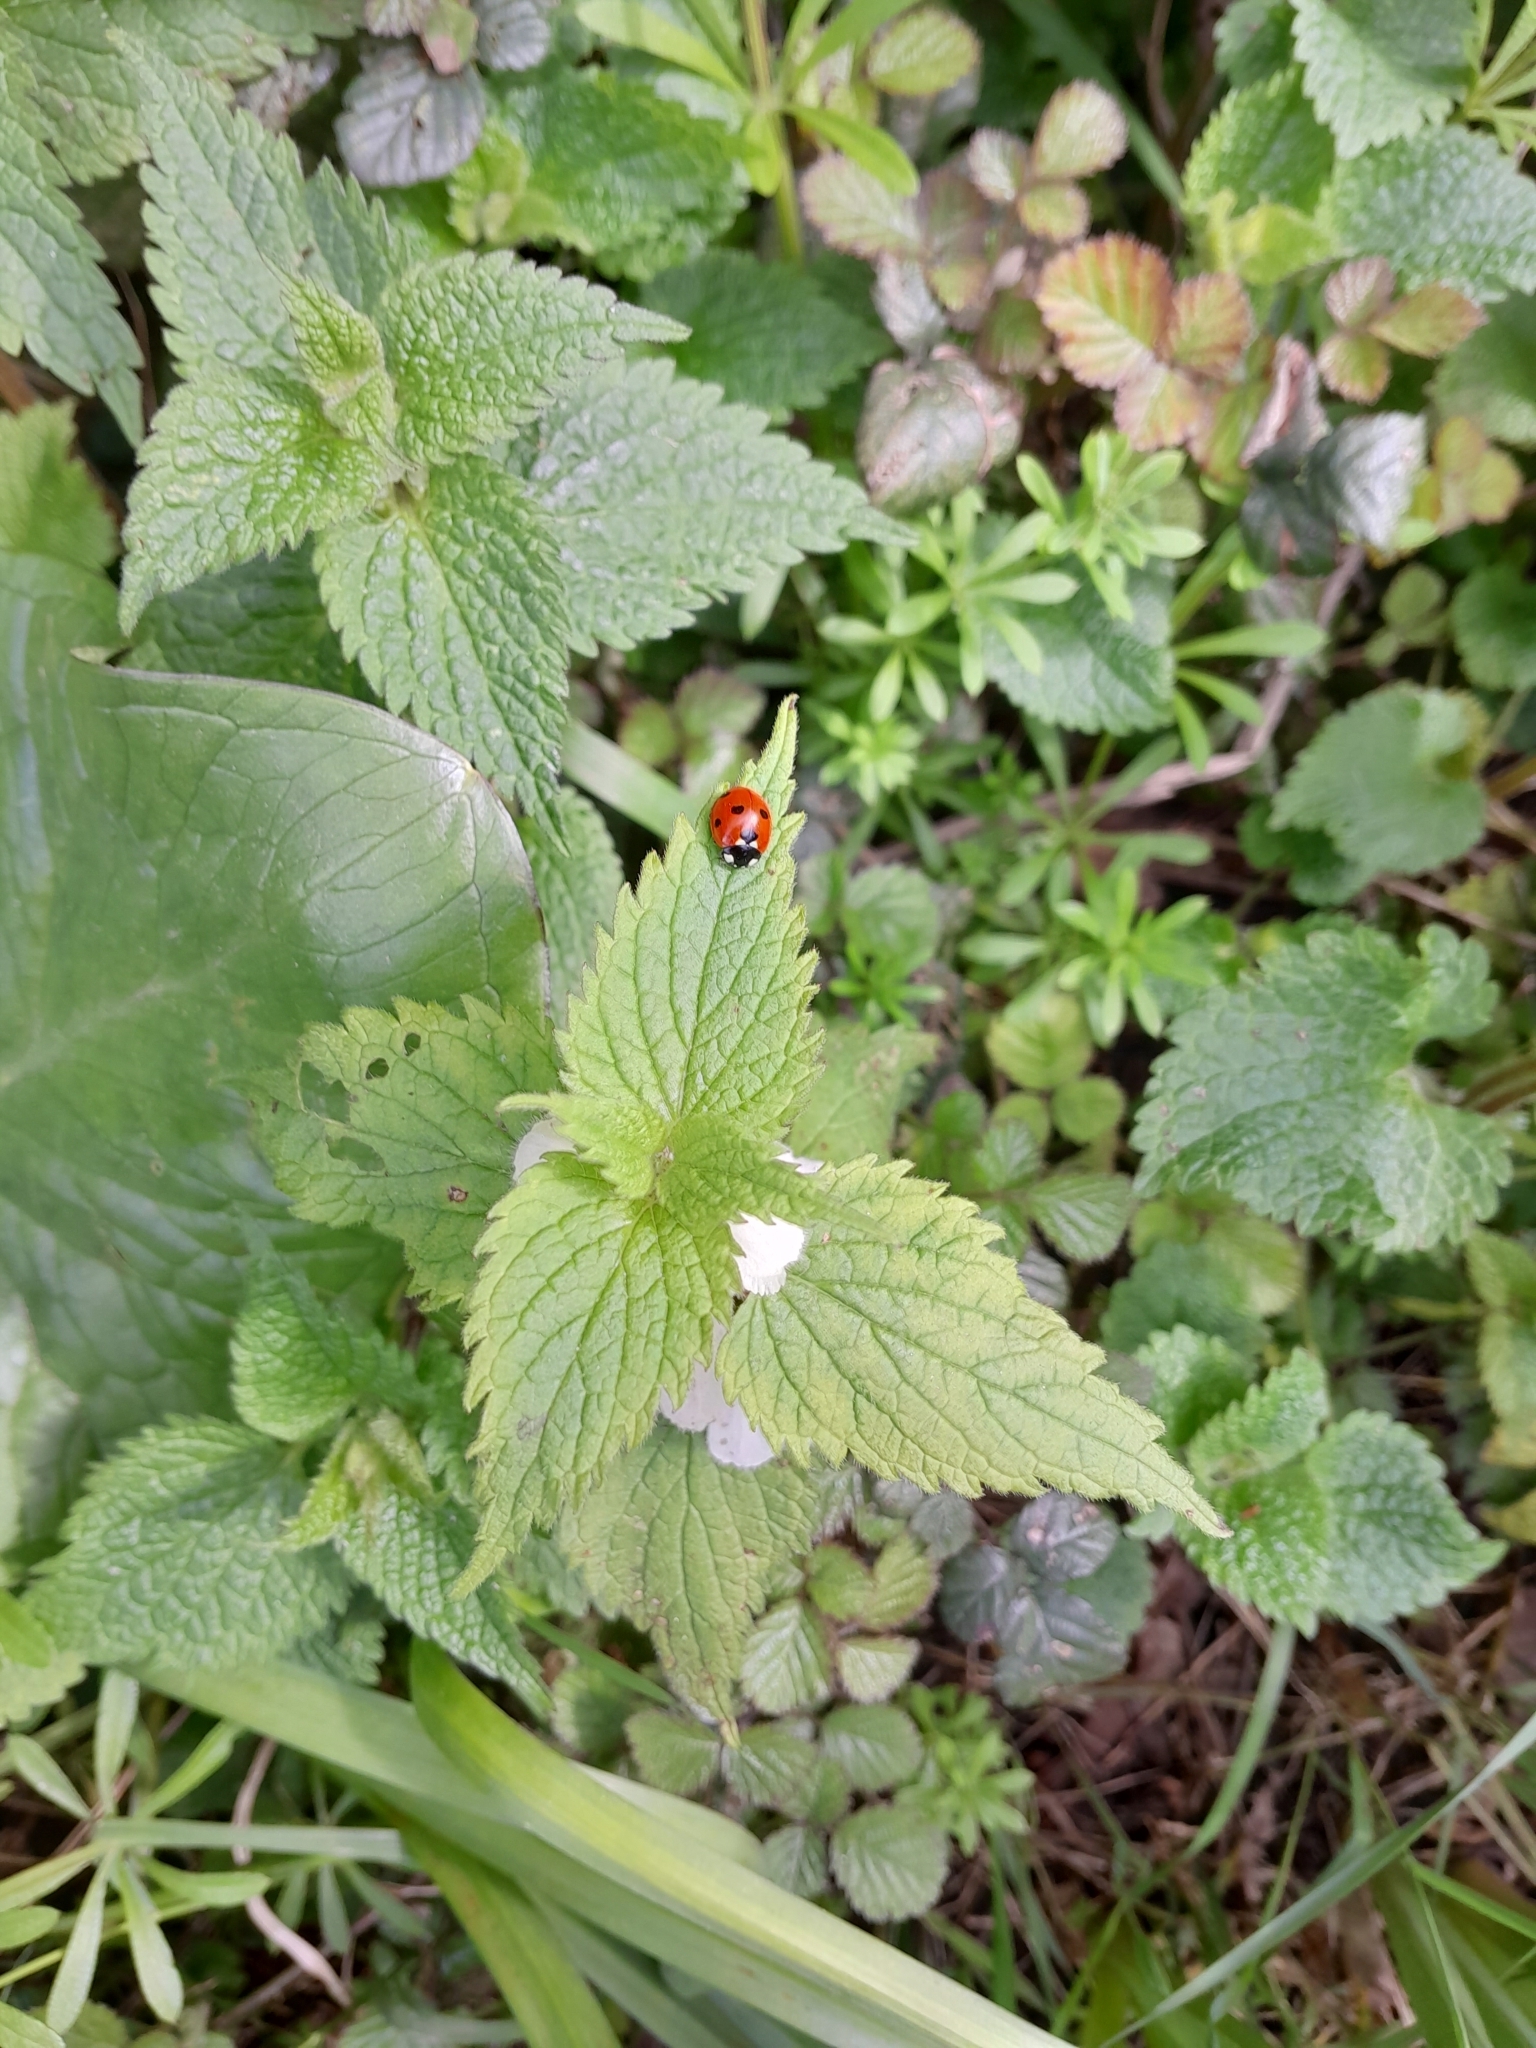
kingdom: Animalia
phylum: Arthropoda
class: Insecta
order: Coleoptera
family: Coccinellidae
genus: Coccinella
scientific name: Coccinella septempunctata
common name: Sevenspotted lady beetle
